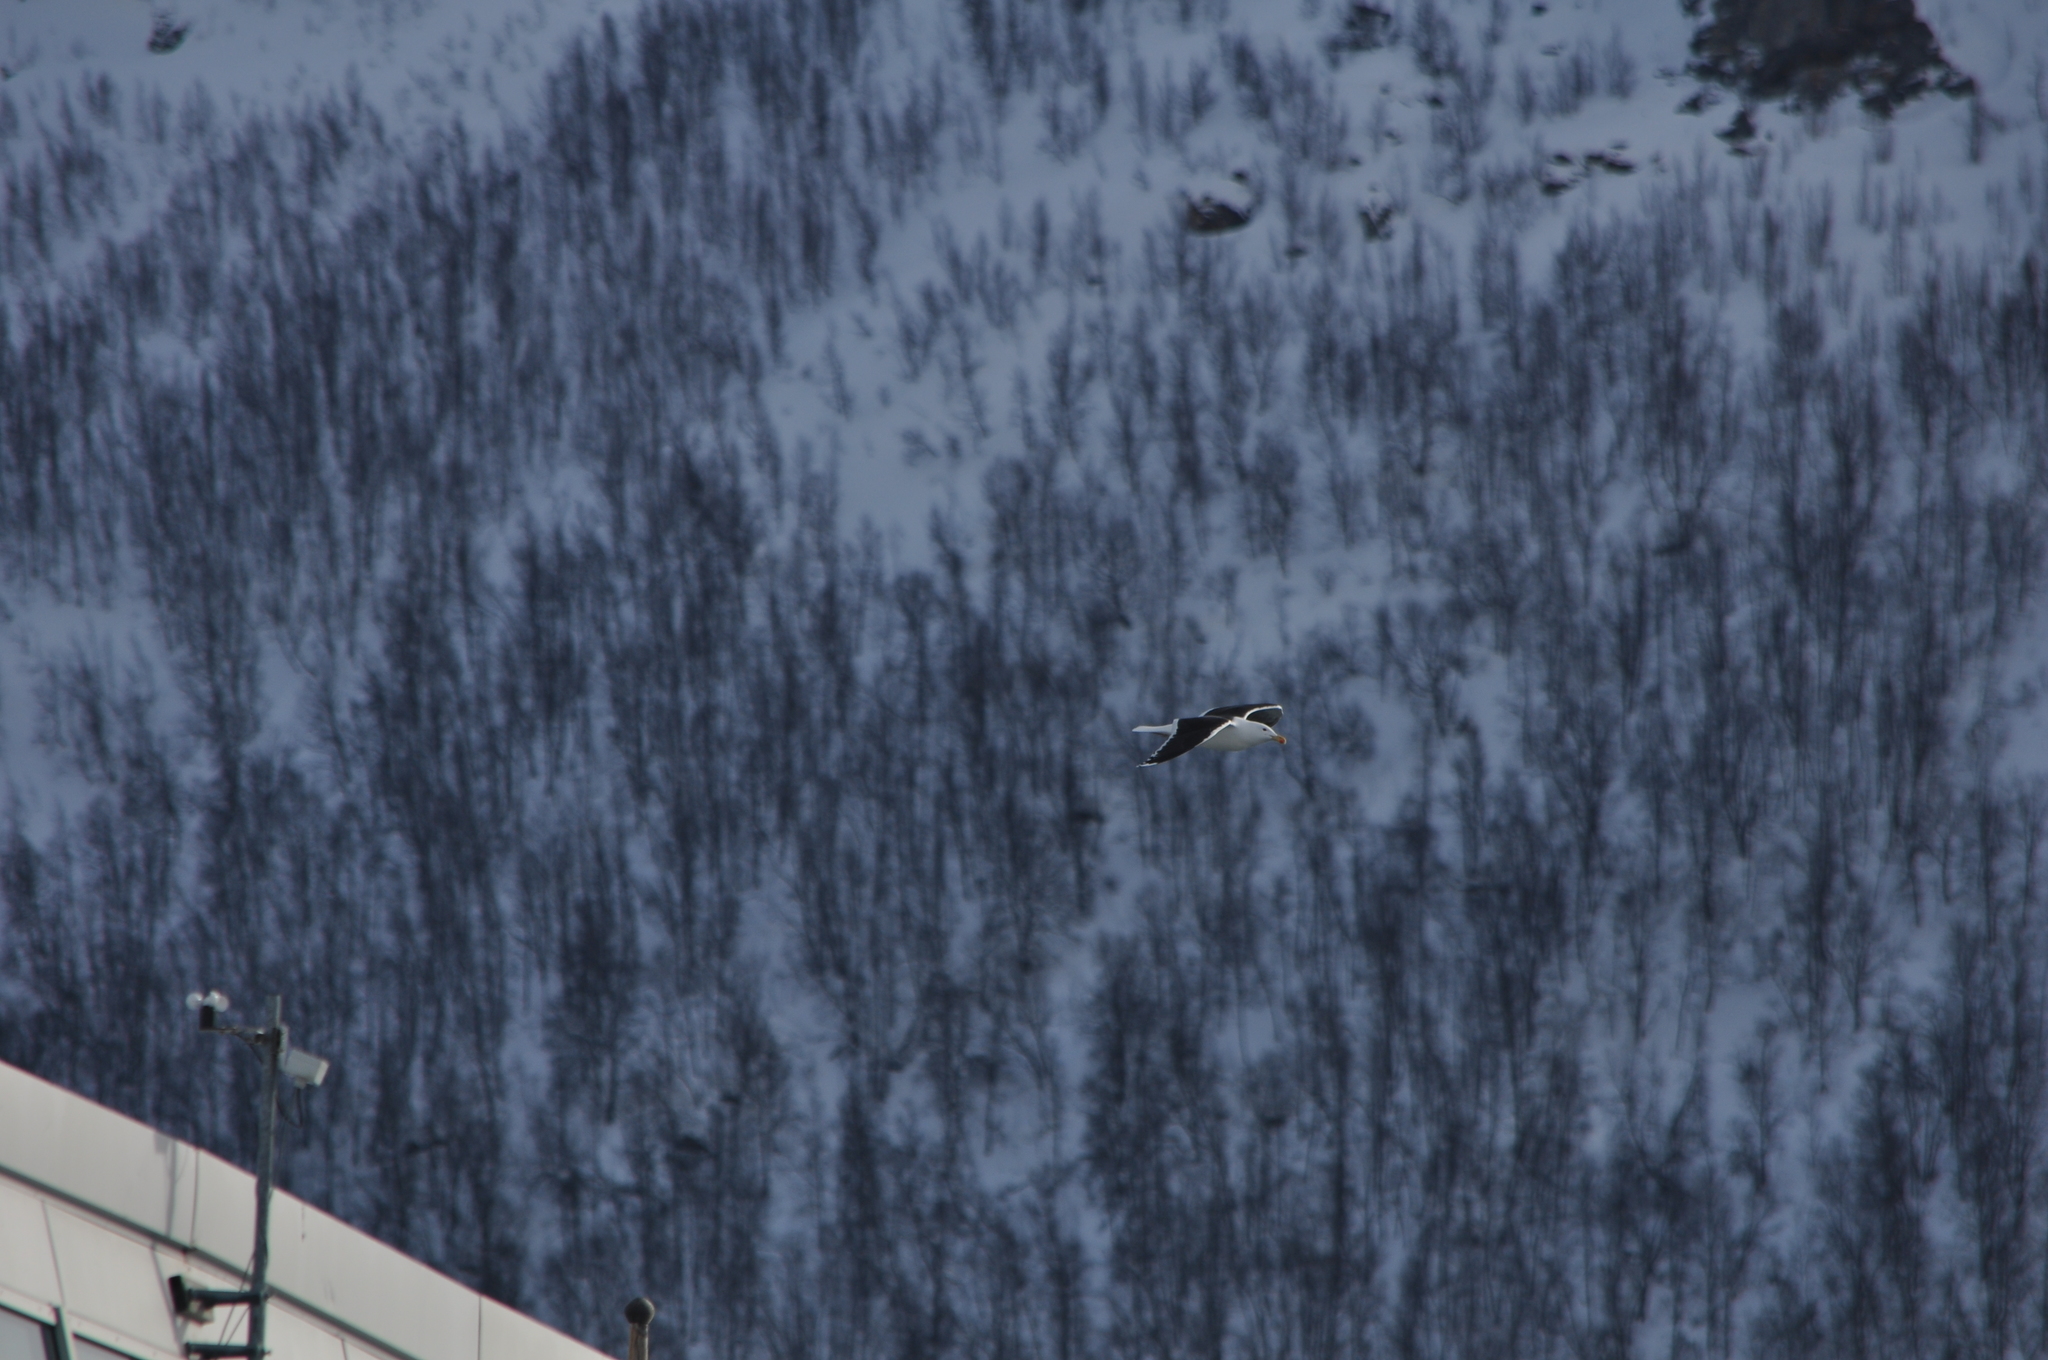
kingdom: Animalia
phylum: Chordata
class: Aves
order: Charadriiformes
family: Laridae
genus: Larus
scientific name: Larus marinus
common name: Great black-backed gull
